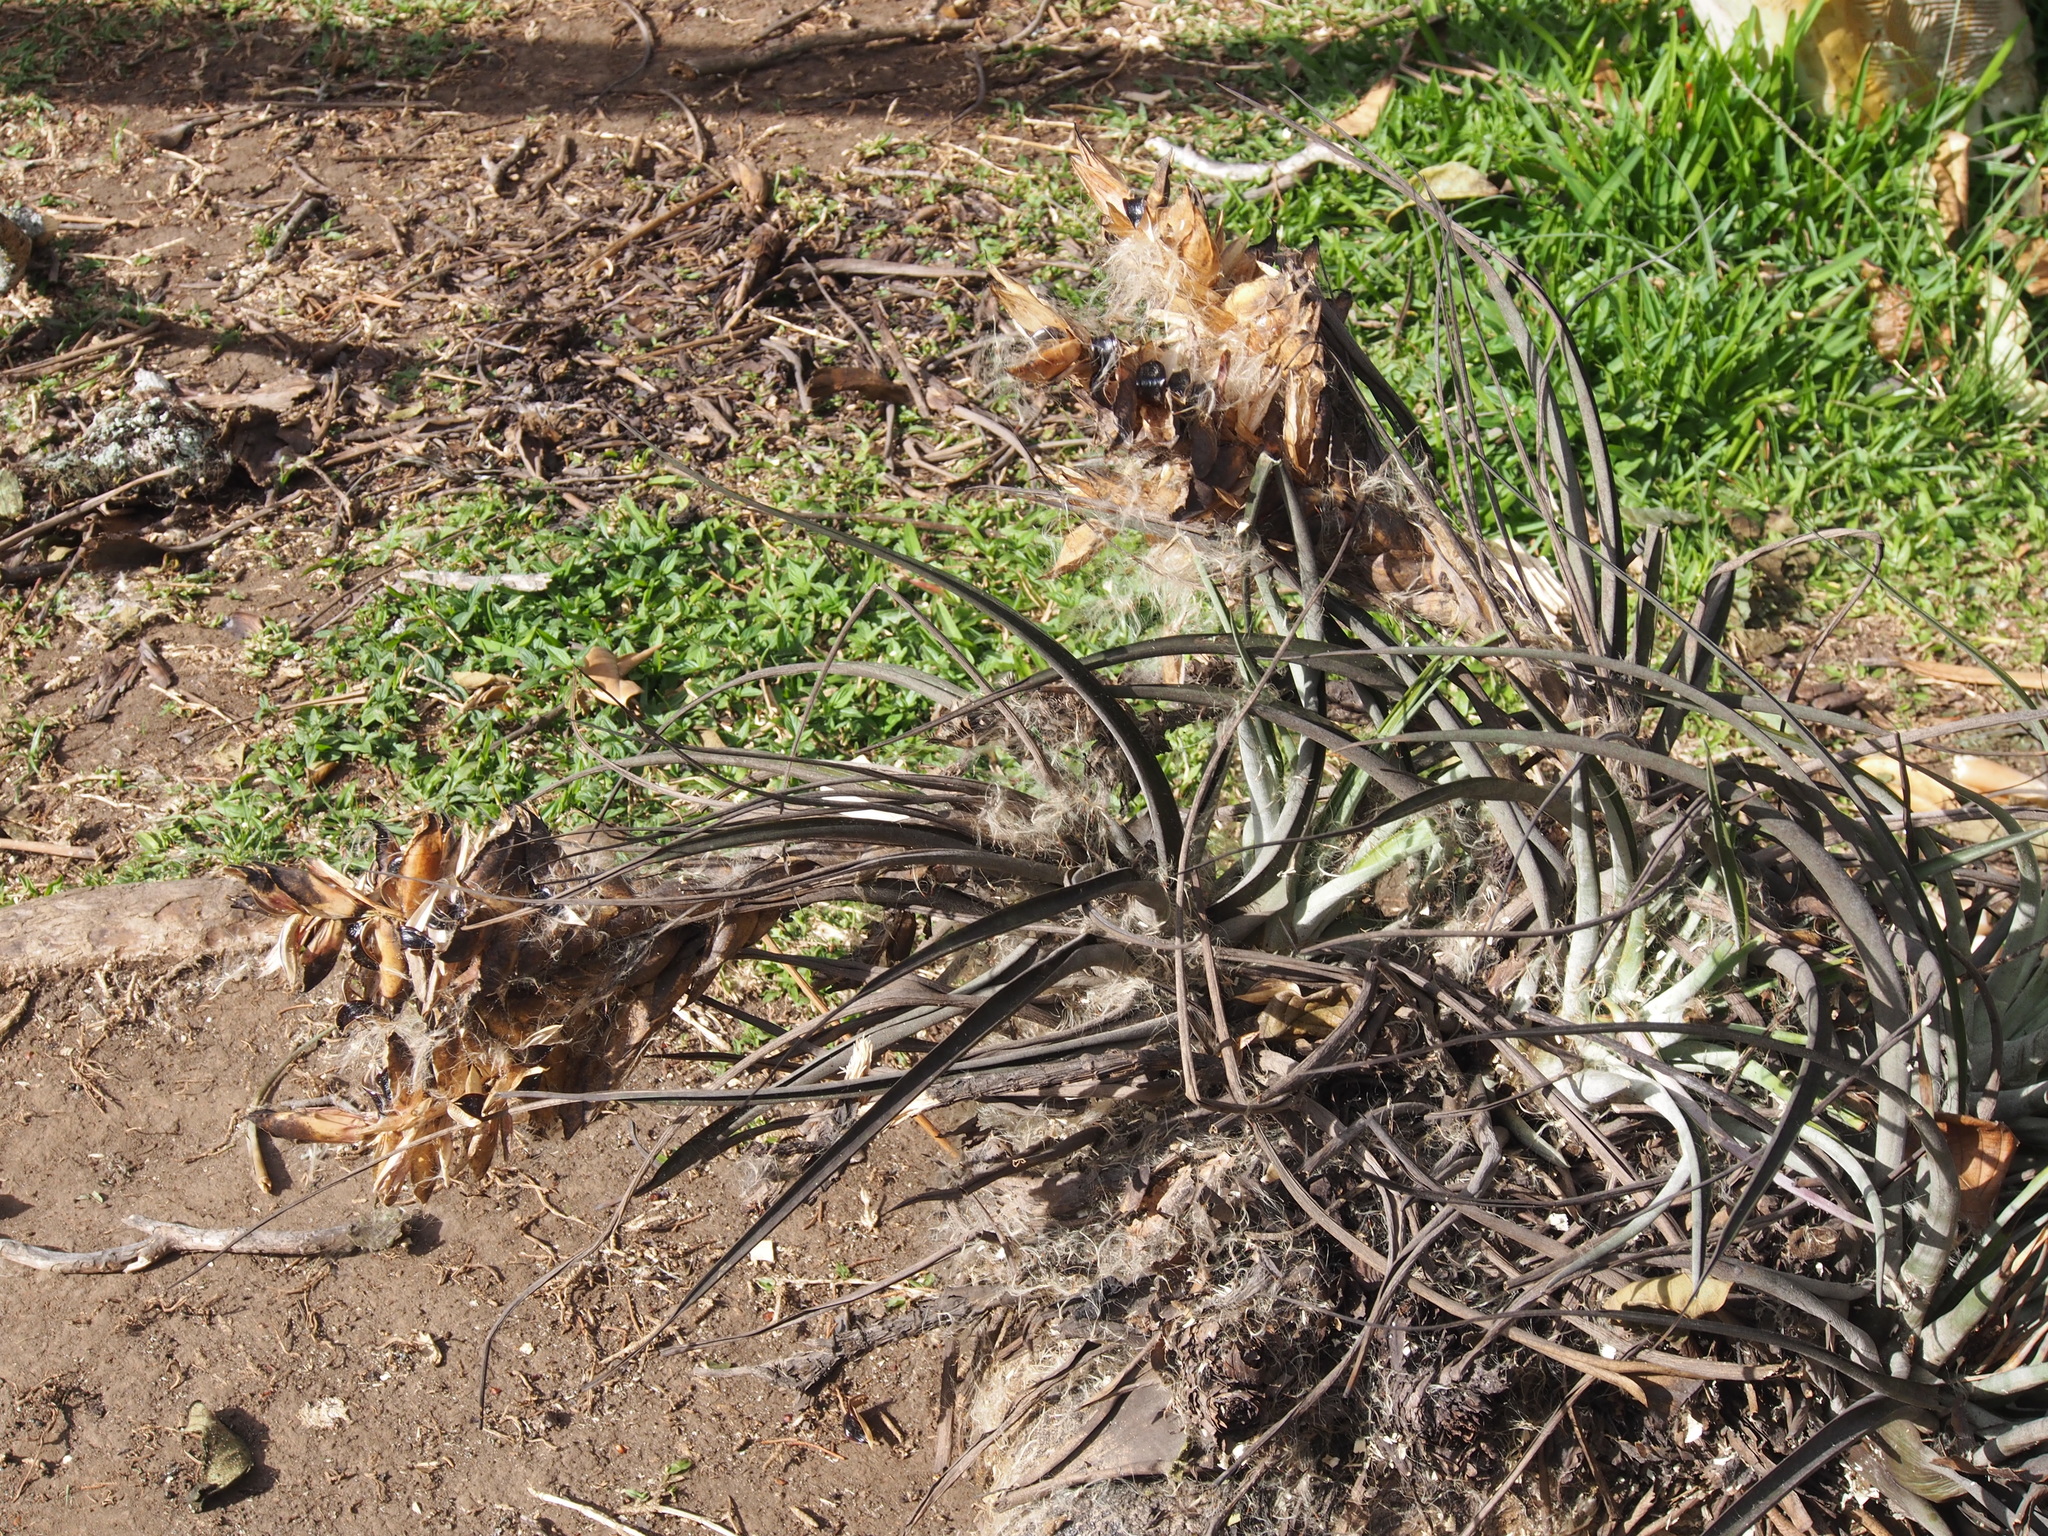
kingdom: Plantae
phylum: Tracheophyta
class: Liliopsida
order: Poales
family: Bromeliaceae
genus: Tillandsia
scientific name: Tillandsia schiedeana
